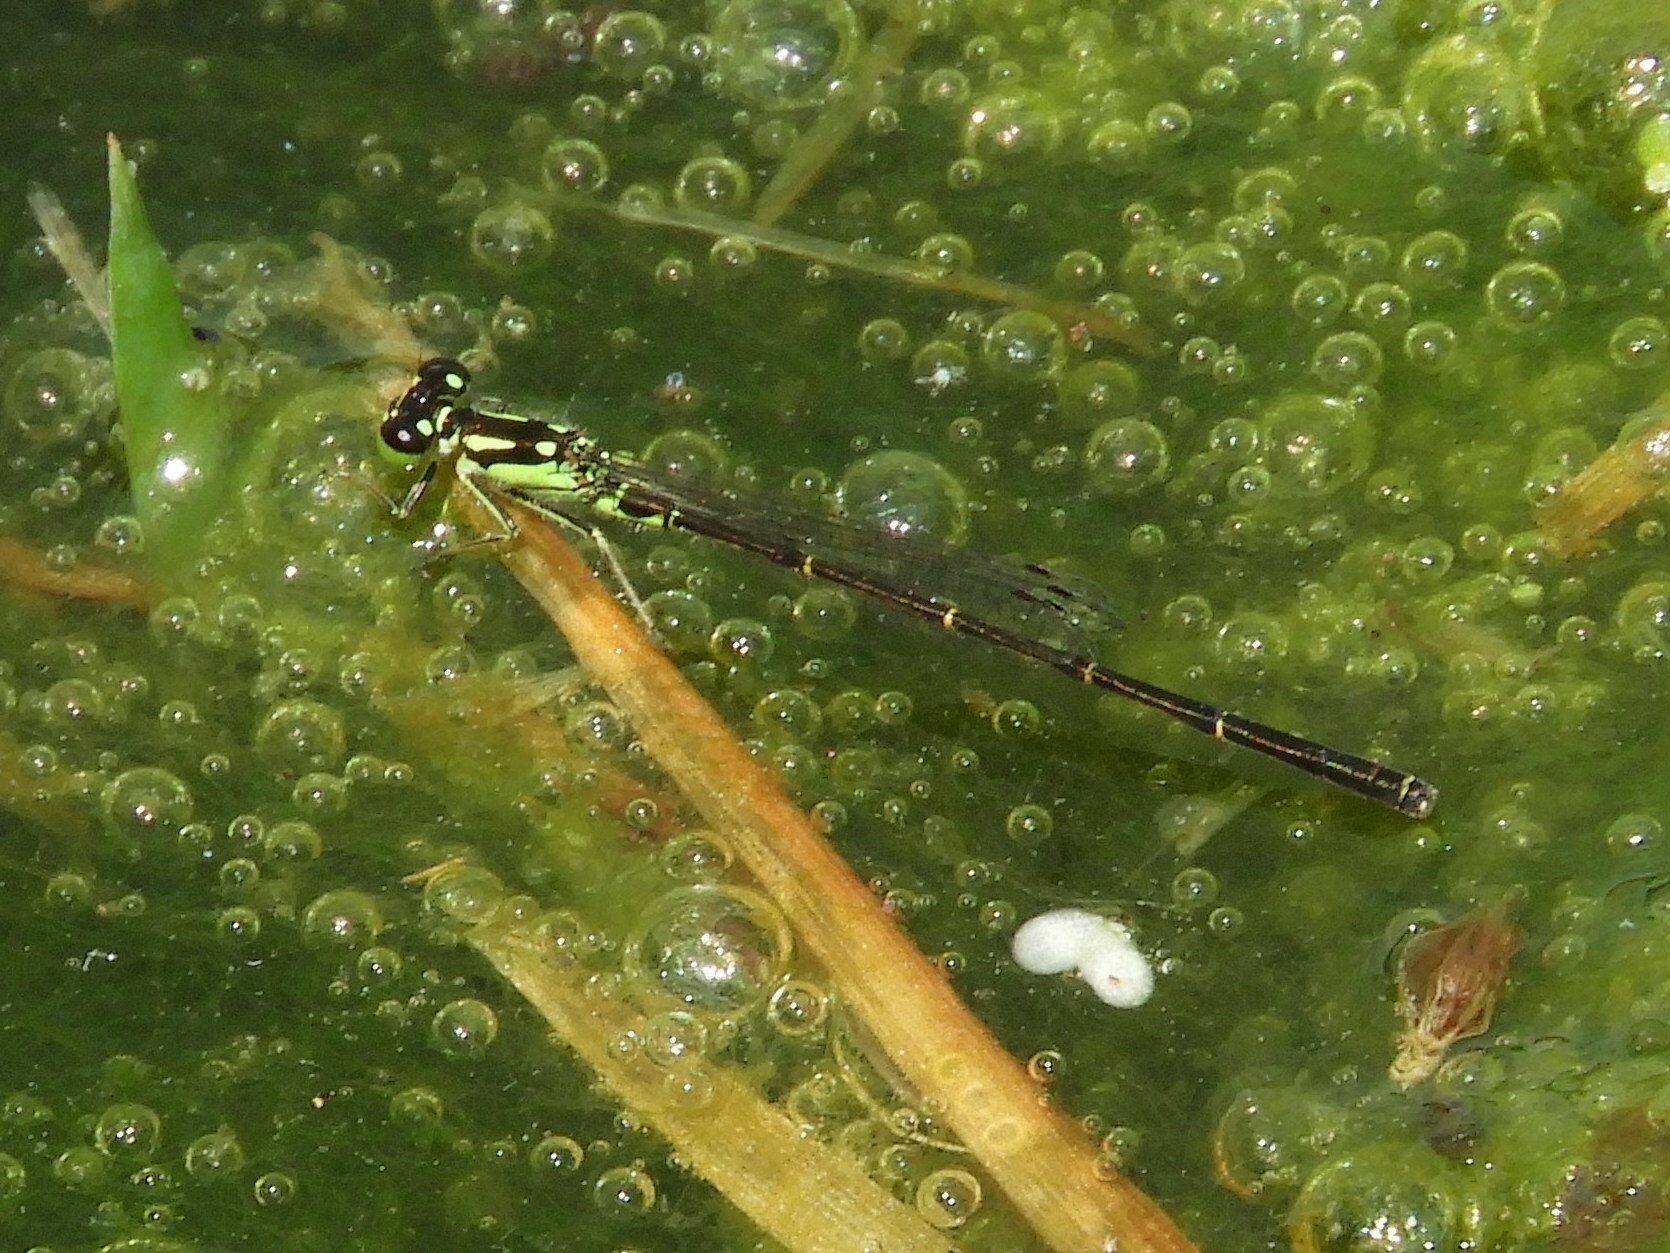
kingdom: Animalia
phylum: Arthropoda
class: Insecta
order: Odonata
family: Coenagrionidae
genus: Ischnura
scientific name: Ischnura posita
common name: Fragile forktail
